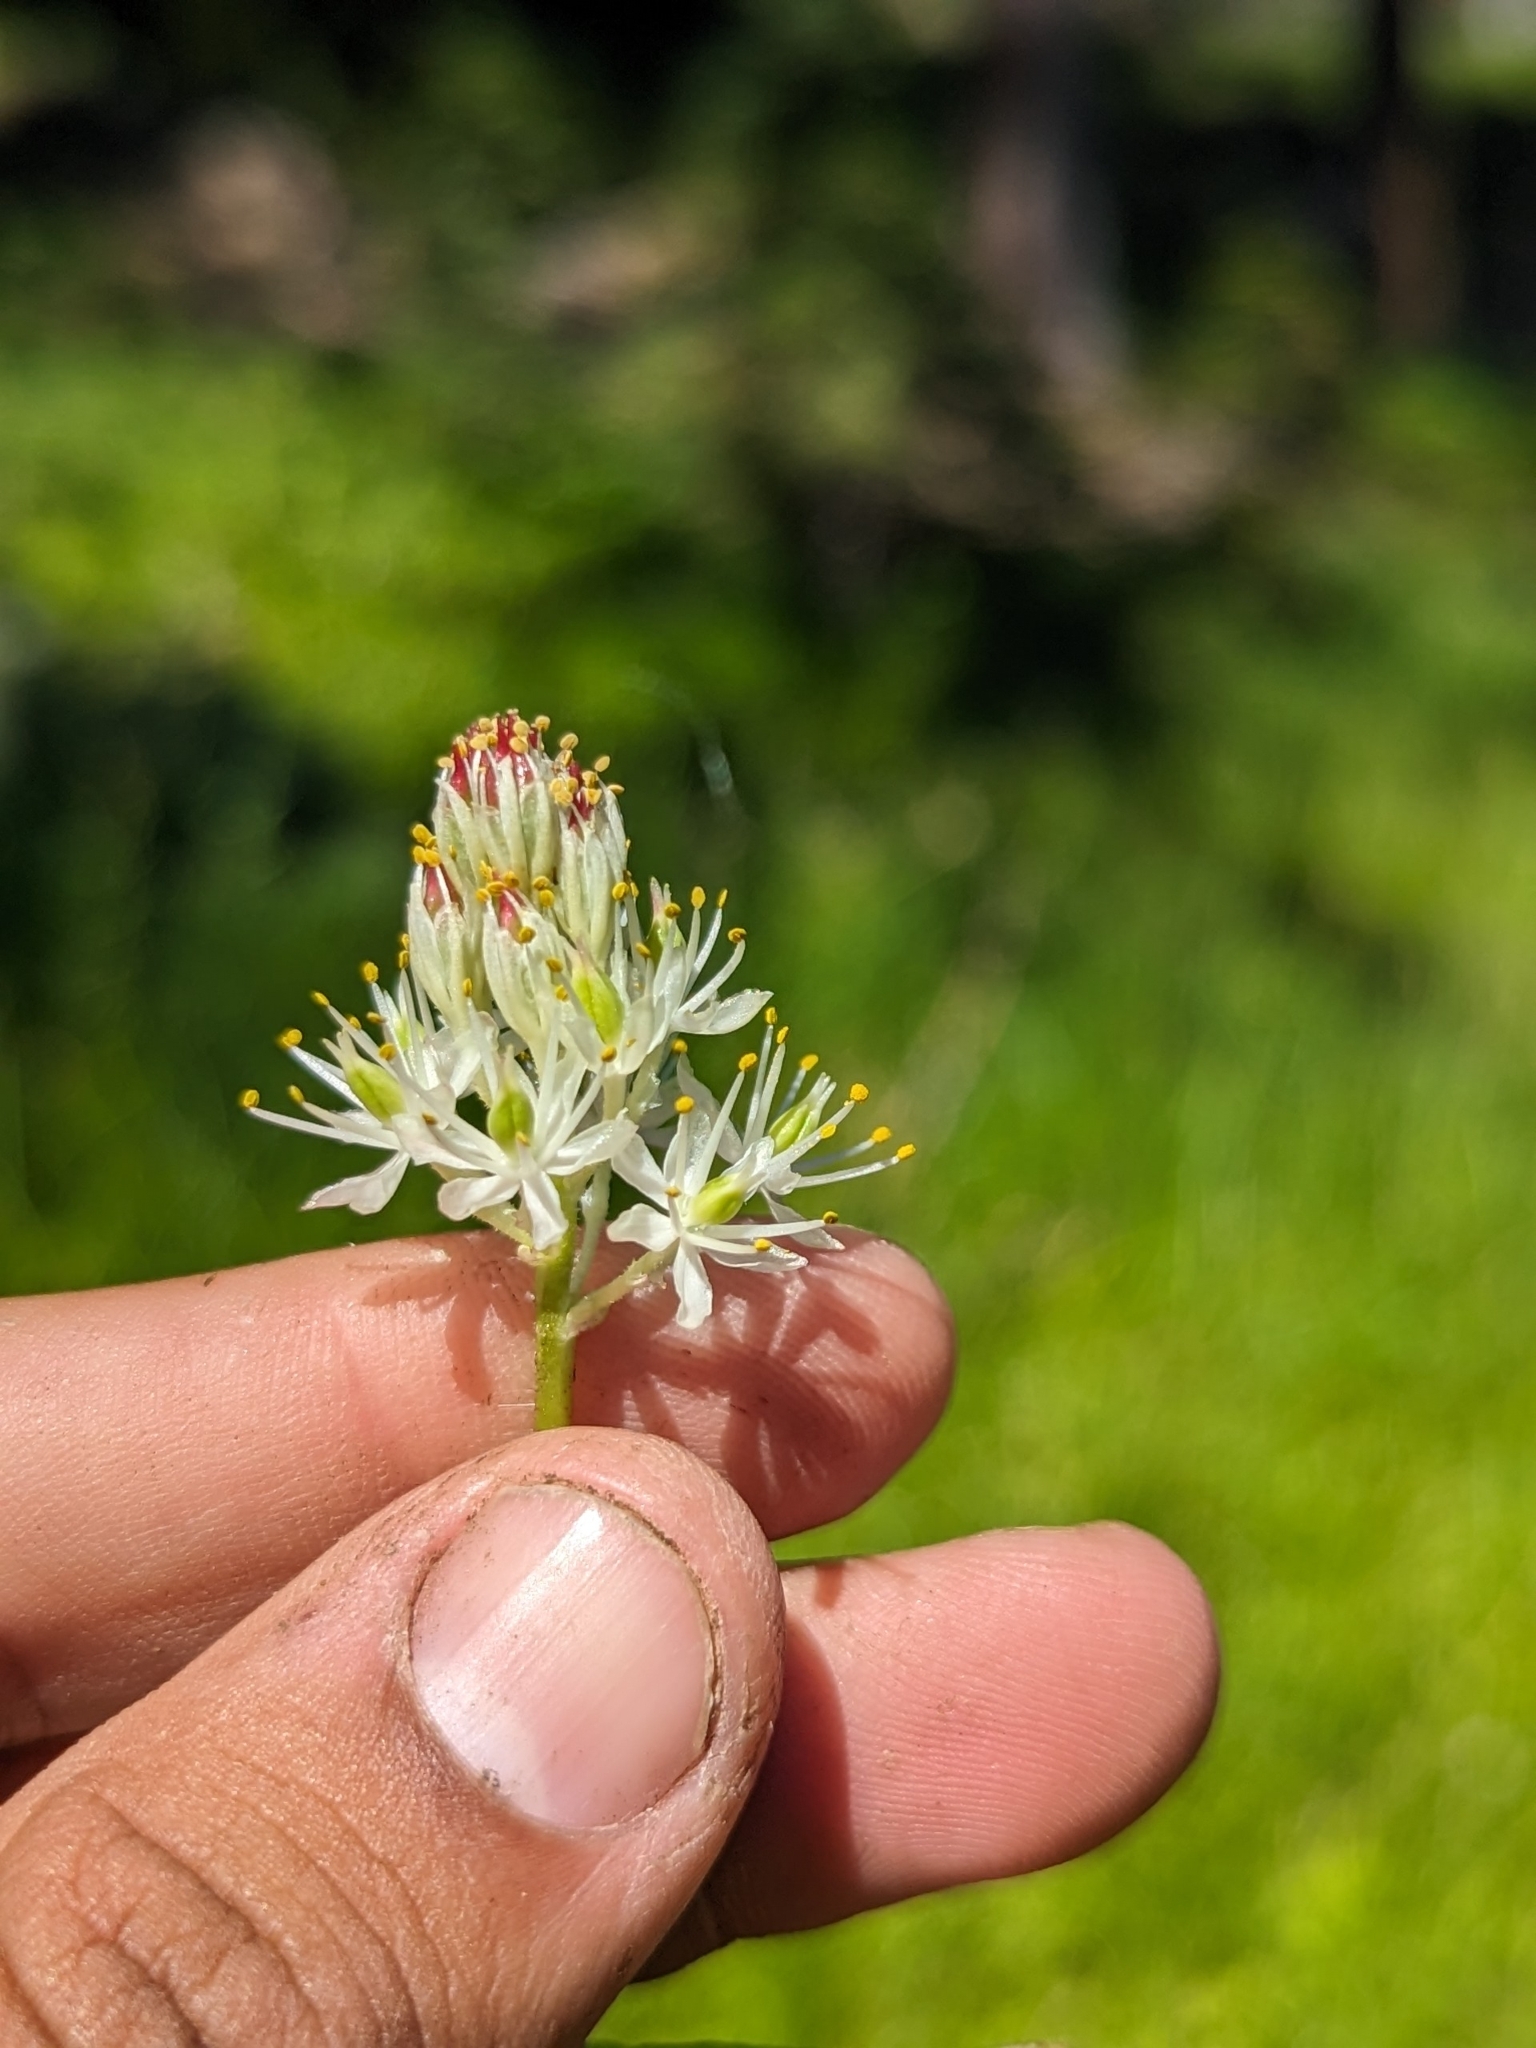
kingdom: Plantae
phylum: Tracheophyta
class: Liliopsida
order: Alismatales
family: Tofieldiaceae
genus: Triantha
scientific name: Triantha occidentalis
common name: Western false asphodel
